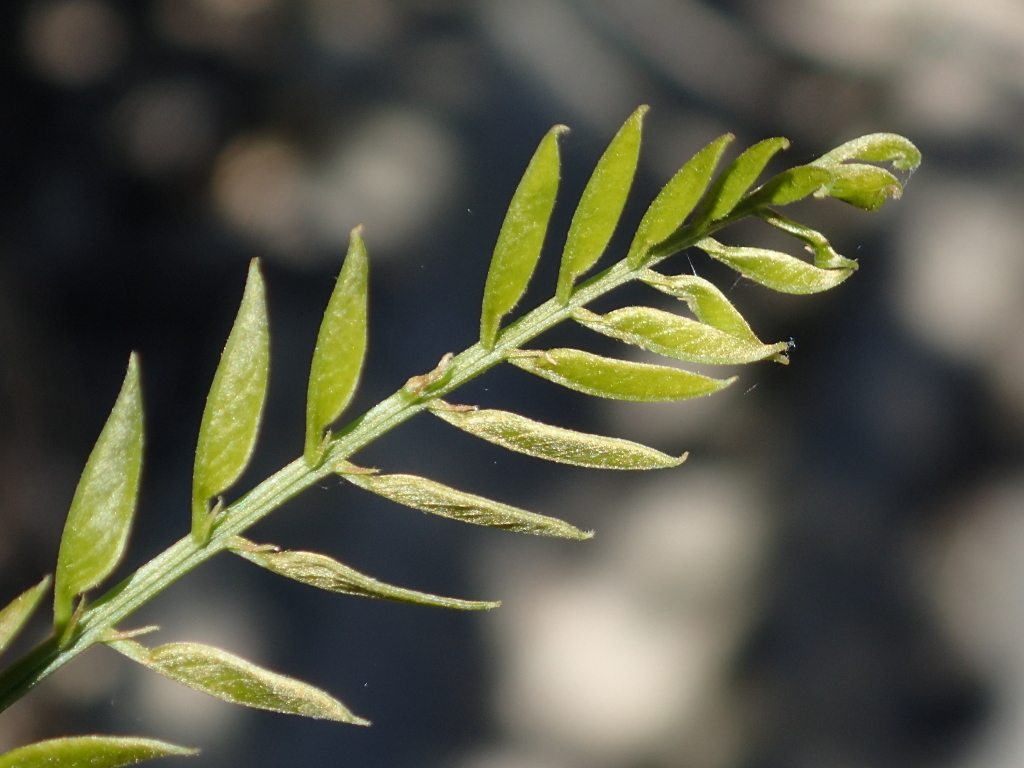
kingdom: Plantae
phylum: Tracheophyta
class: Magnoliopsida
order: Fabales
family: Fabaceae
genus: Robinia
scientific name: Robinia pseudoacacia
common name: Black locust
